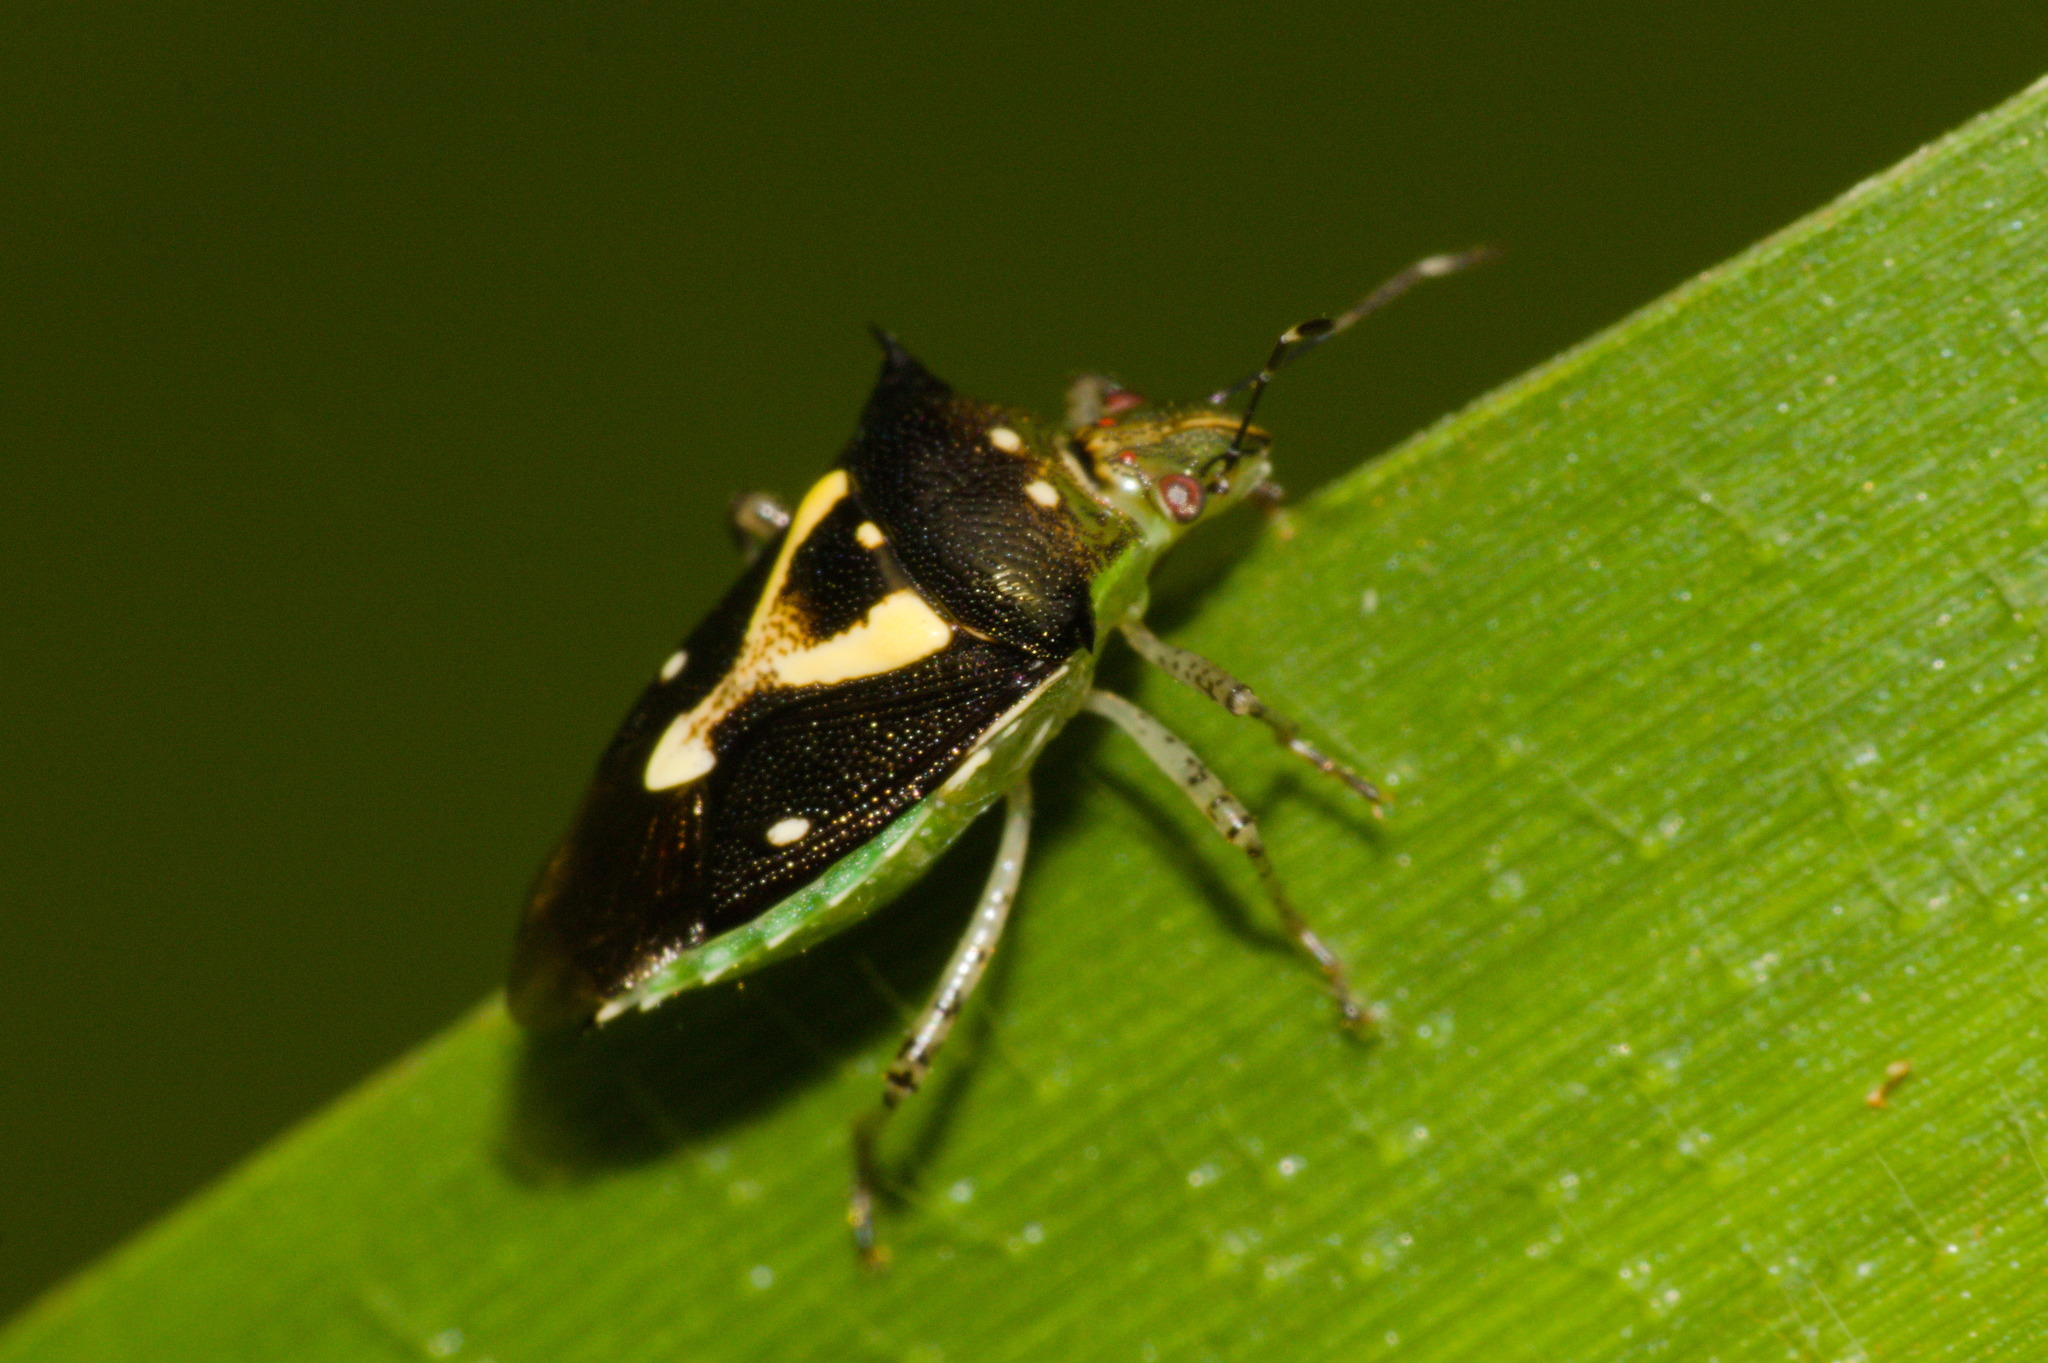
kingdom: Animalia
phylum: Arthropoda
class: Insecta
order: Hemiptera
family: Pentatomidae
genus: Mormidea
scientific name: Mormidea ypsilon
